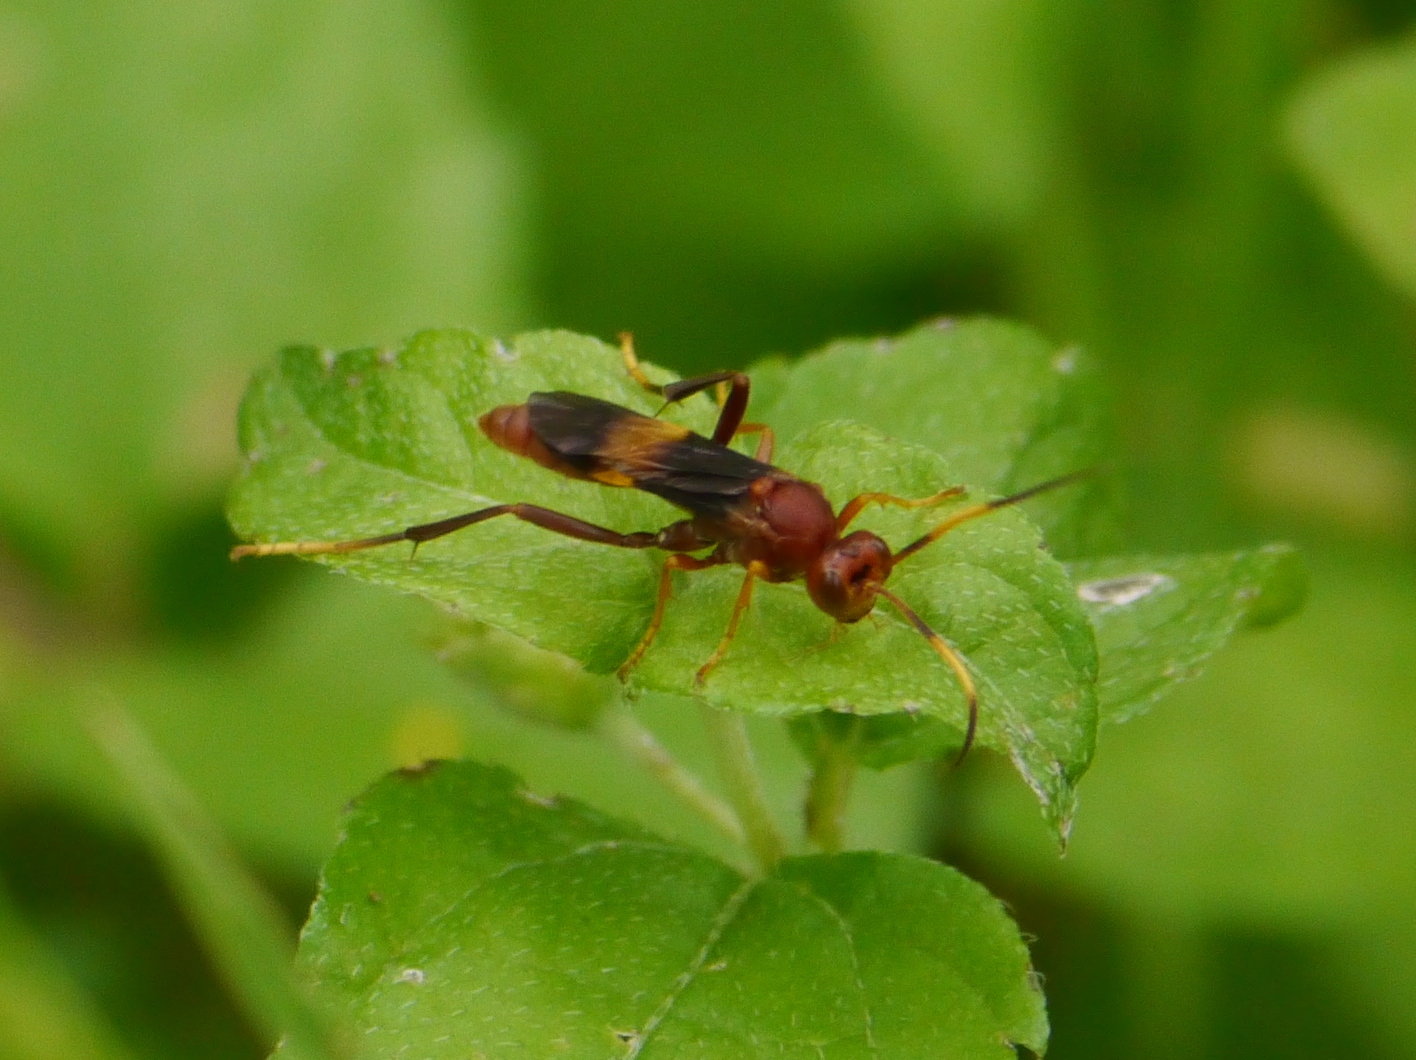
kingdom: Animalia
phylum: Arthropoda
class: Insecta
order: Hymenoptera
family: Ichneumonidae
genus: Trogomorpha
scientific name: Trogomorpha arrogans
